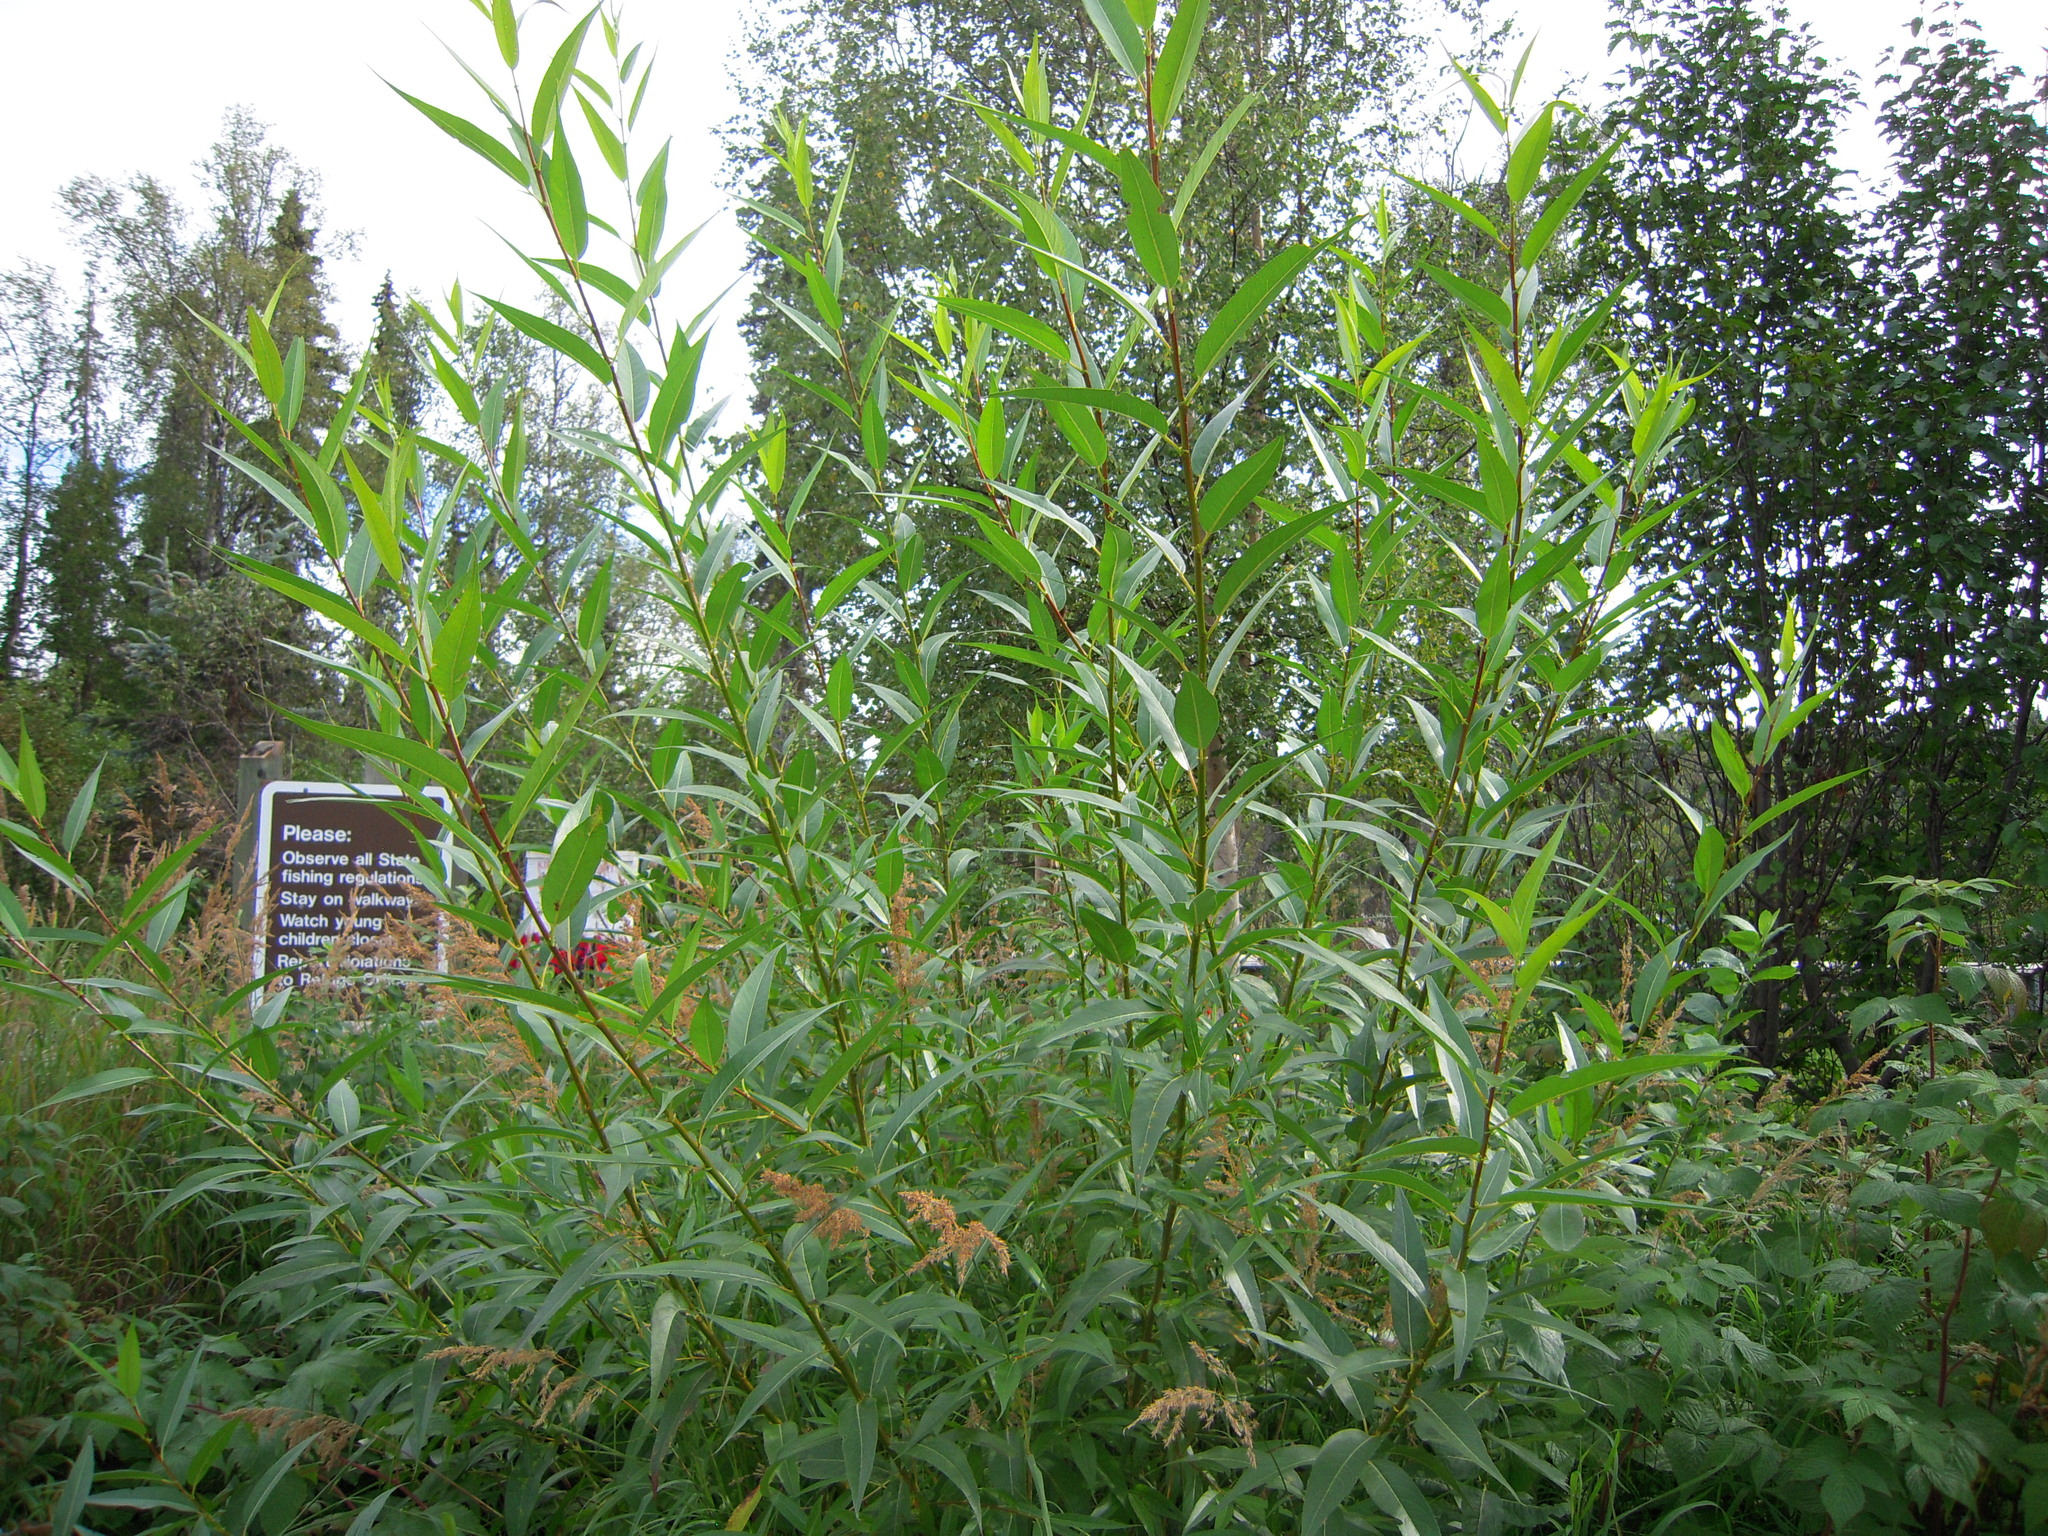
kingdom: Plantae
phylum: Tracheophyta
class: Magnoliopsida
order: Malpighiales
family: Salicaceae
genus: Salix
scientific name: Salix lucida
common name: Shining willow
